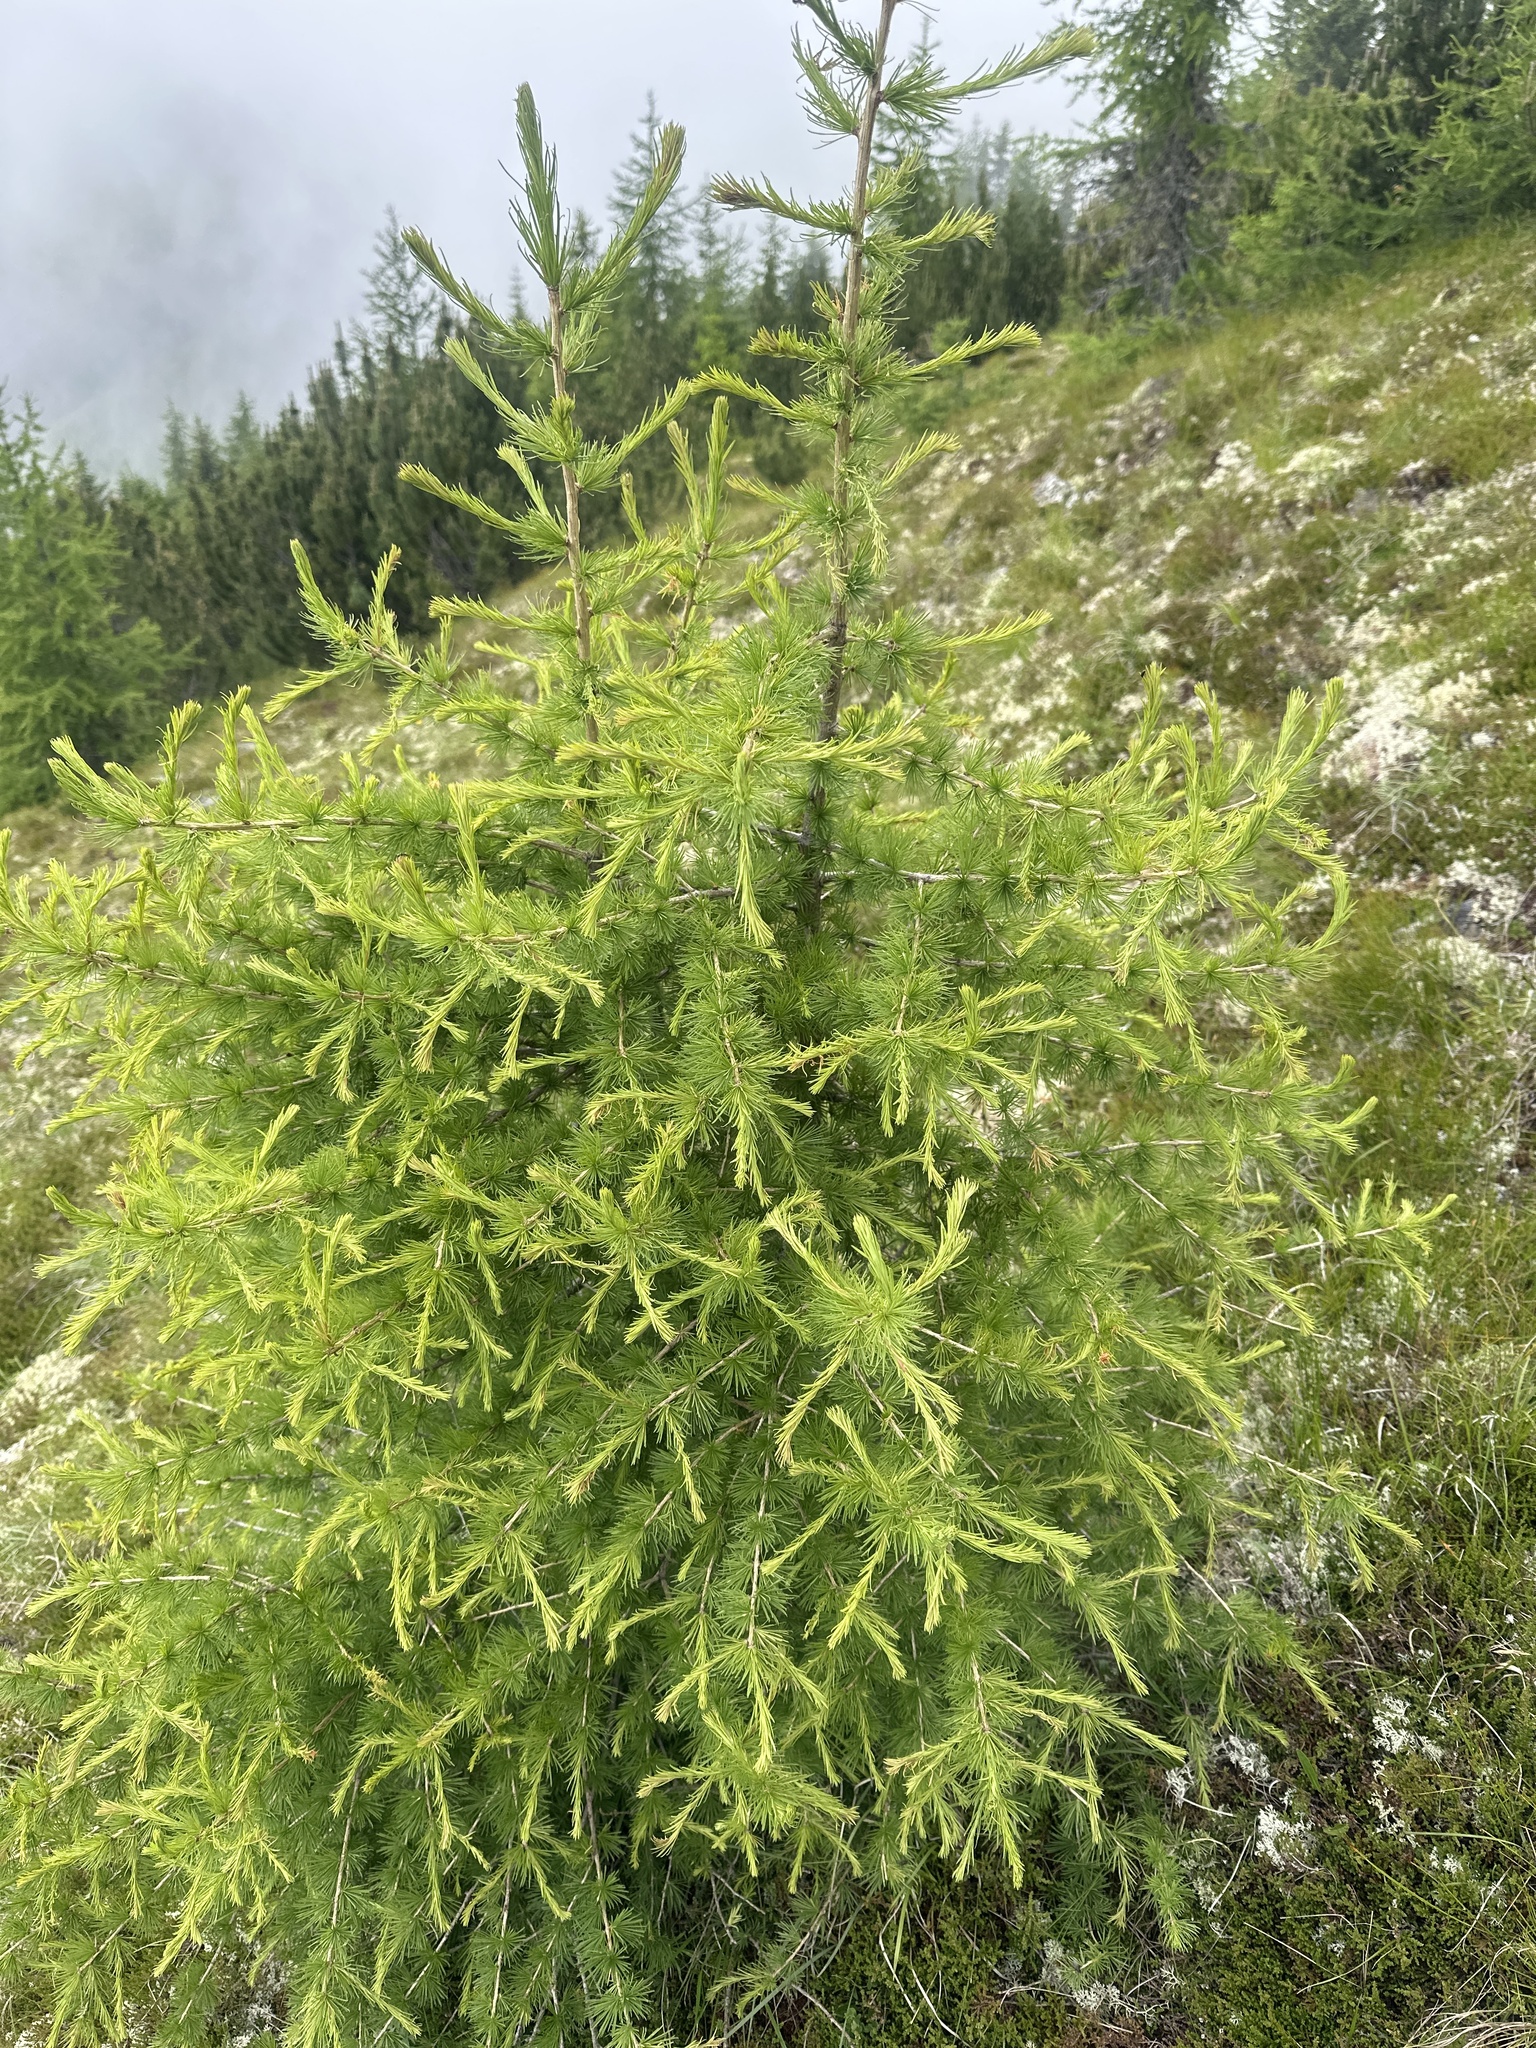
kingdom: Plantae
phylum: Tracheophyta
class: Pinopsida
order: Pinales
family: Pinaceae
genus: Larix
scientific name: Larix decidua
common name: European larch
